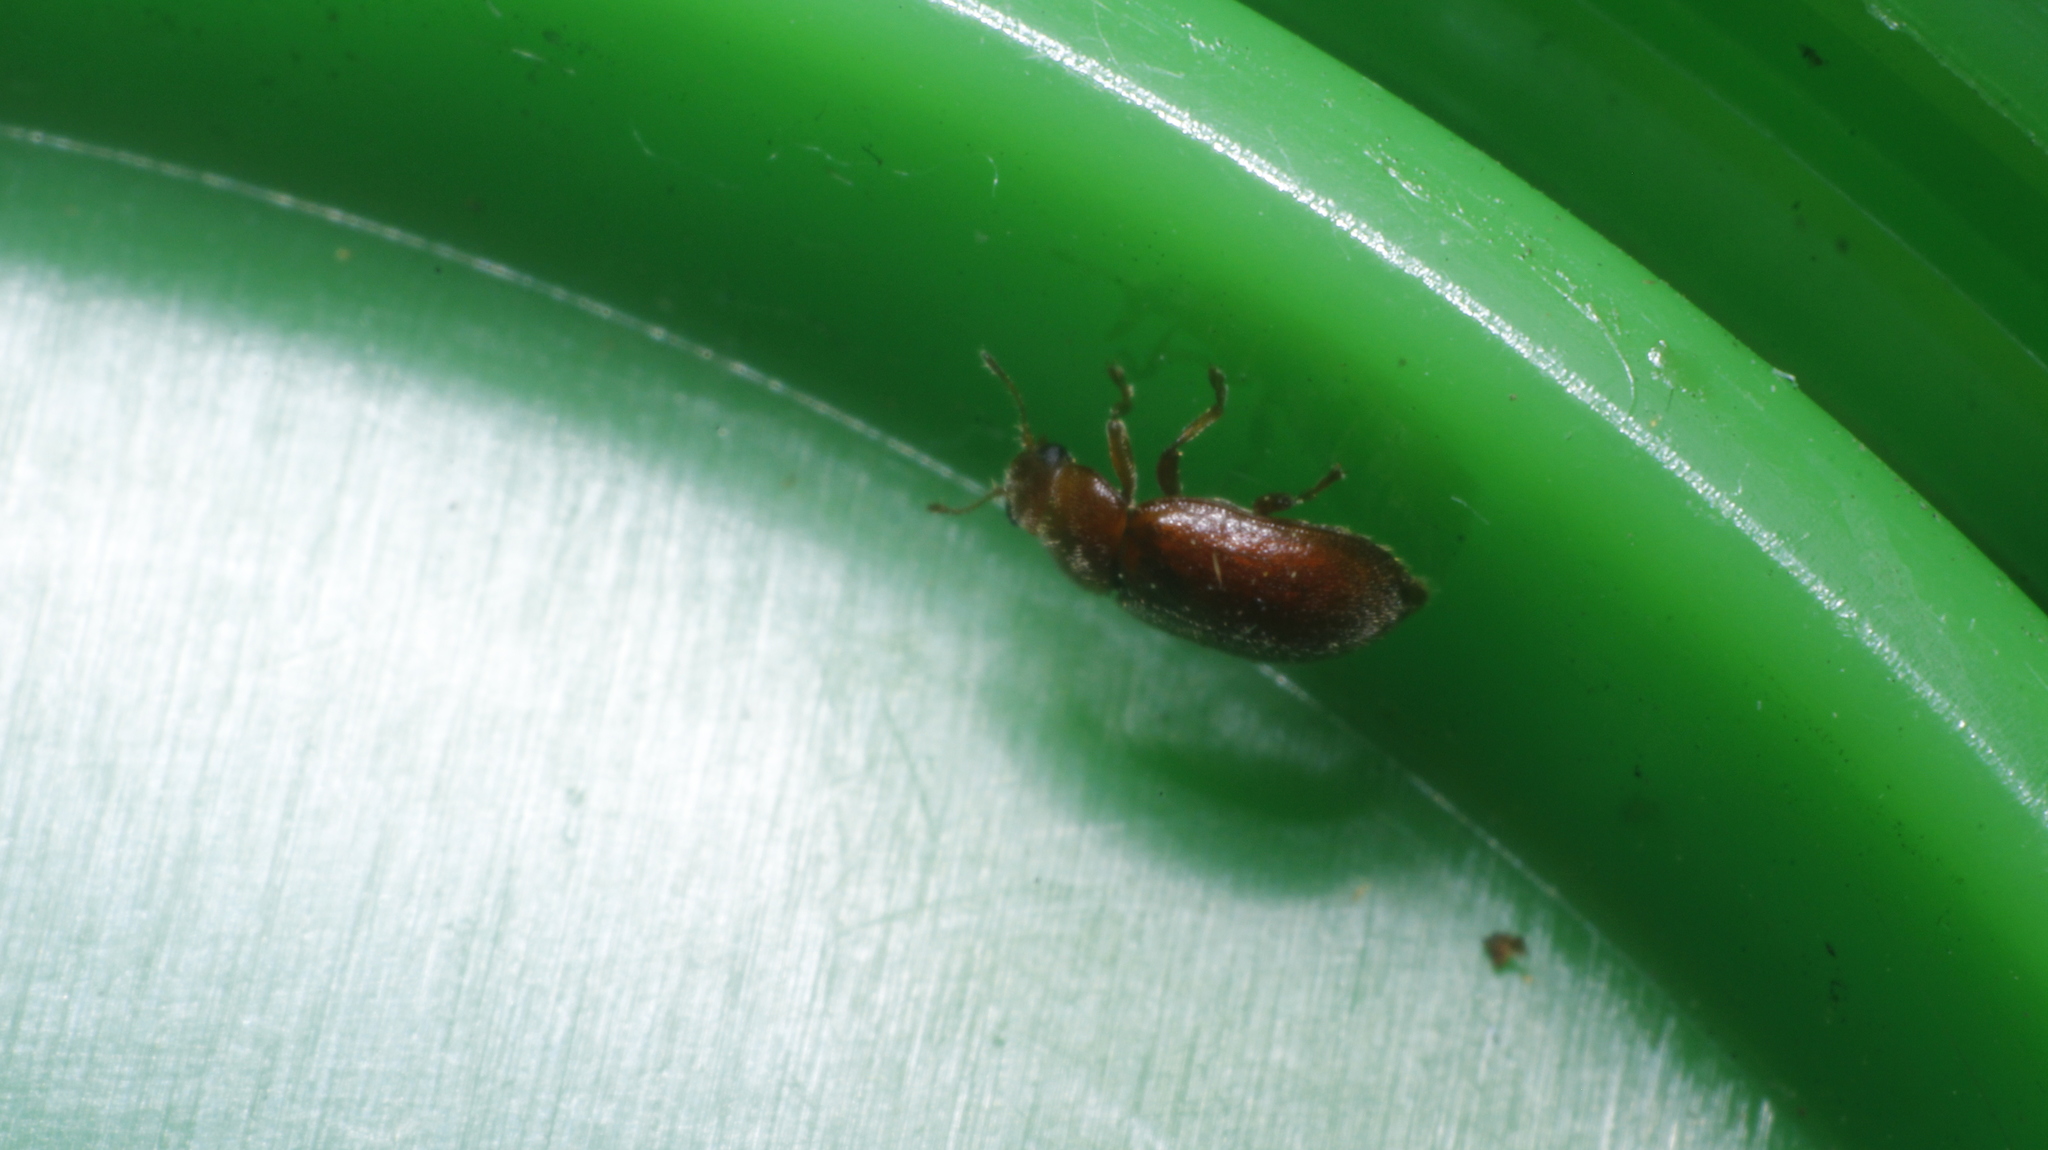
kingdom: Animalia
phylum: Arthropoda
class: Insecta
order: Coleoptera
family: Coccinellidae
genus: Coccidula
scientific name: Coccidula rufa
